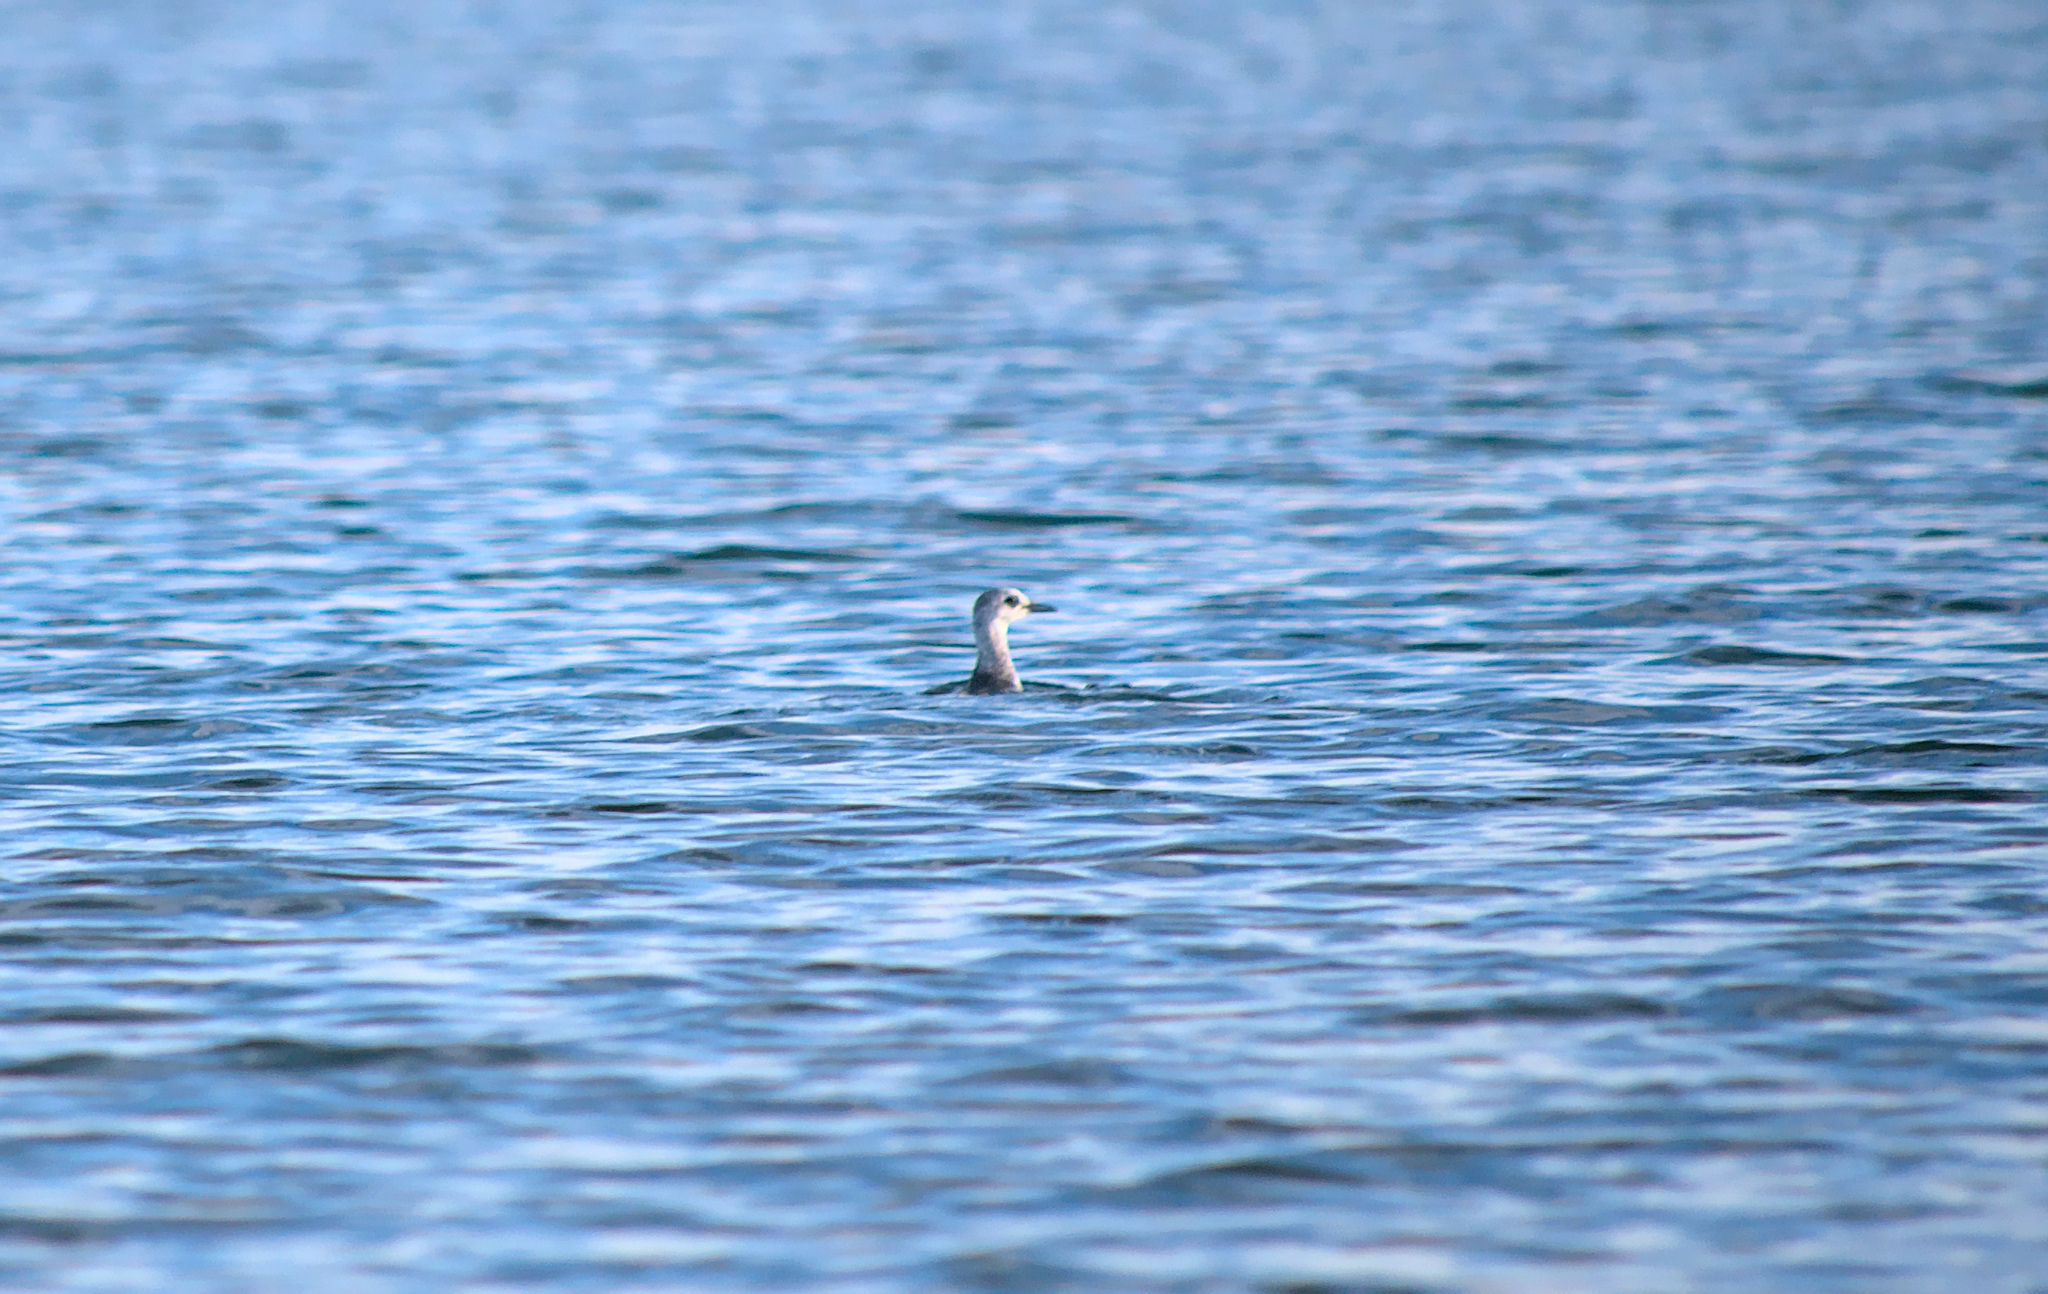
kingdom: Animalia
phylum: Chordata
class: Aves
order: Charadriiformes
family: Alcidae
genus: Cepphus
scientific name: Cepphus grylle
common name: Black guillemot
